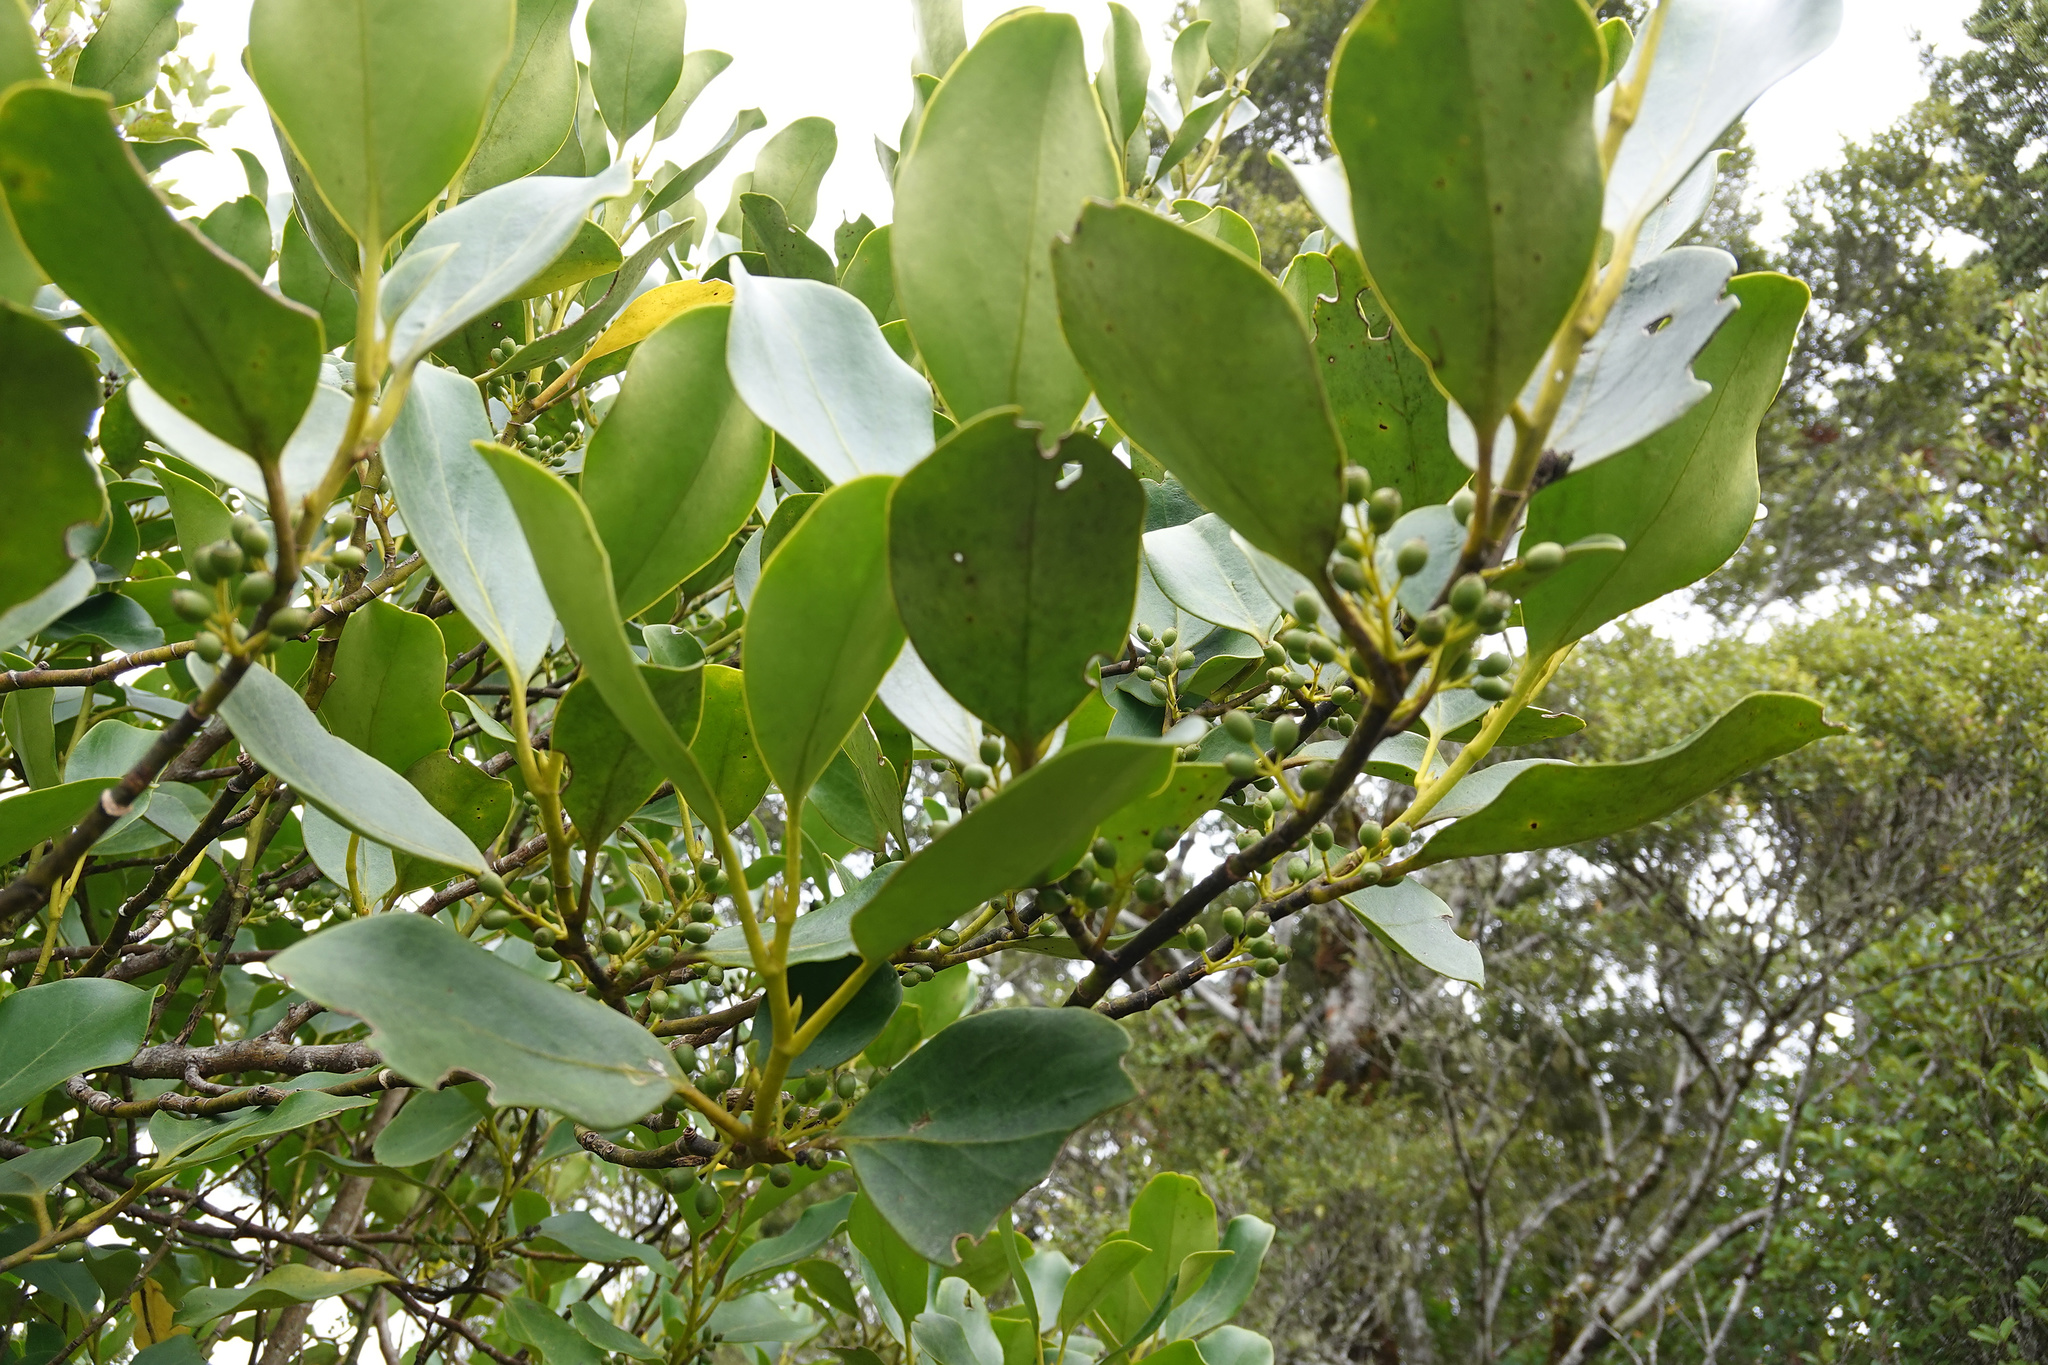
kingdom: Plantae
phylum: Tracheophyta
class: Magnoliopsida
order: Apiales
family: Griseliniaceae
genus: Griselinia
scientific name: Griselinia littoralis
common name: New zealand broadleaf
